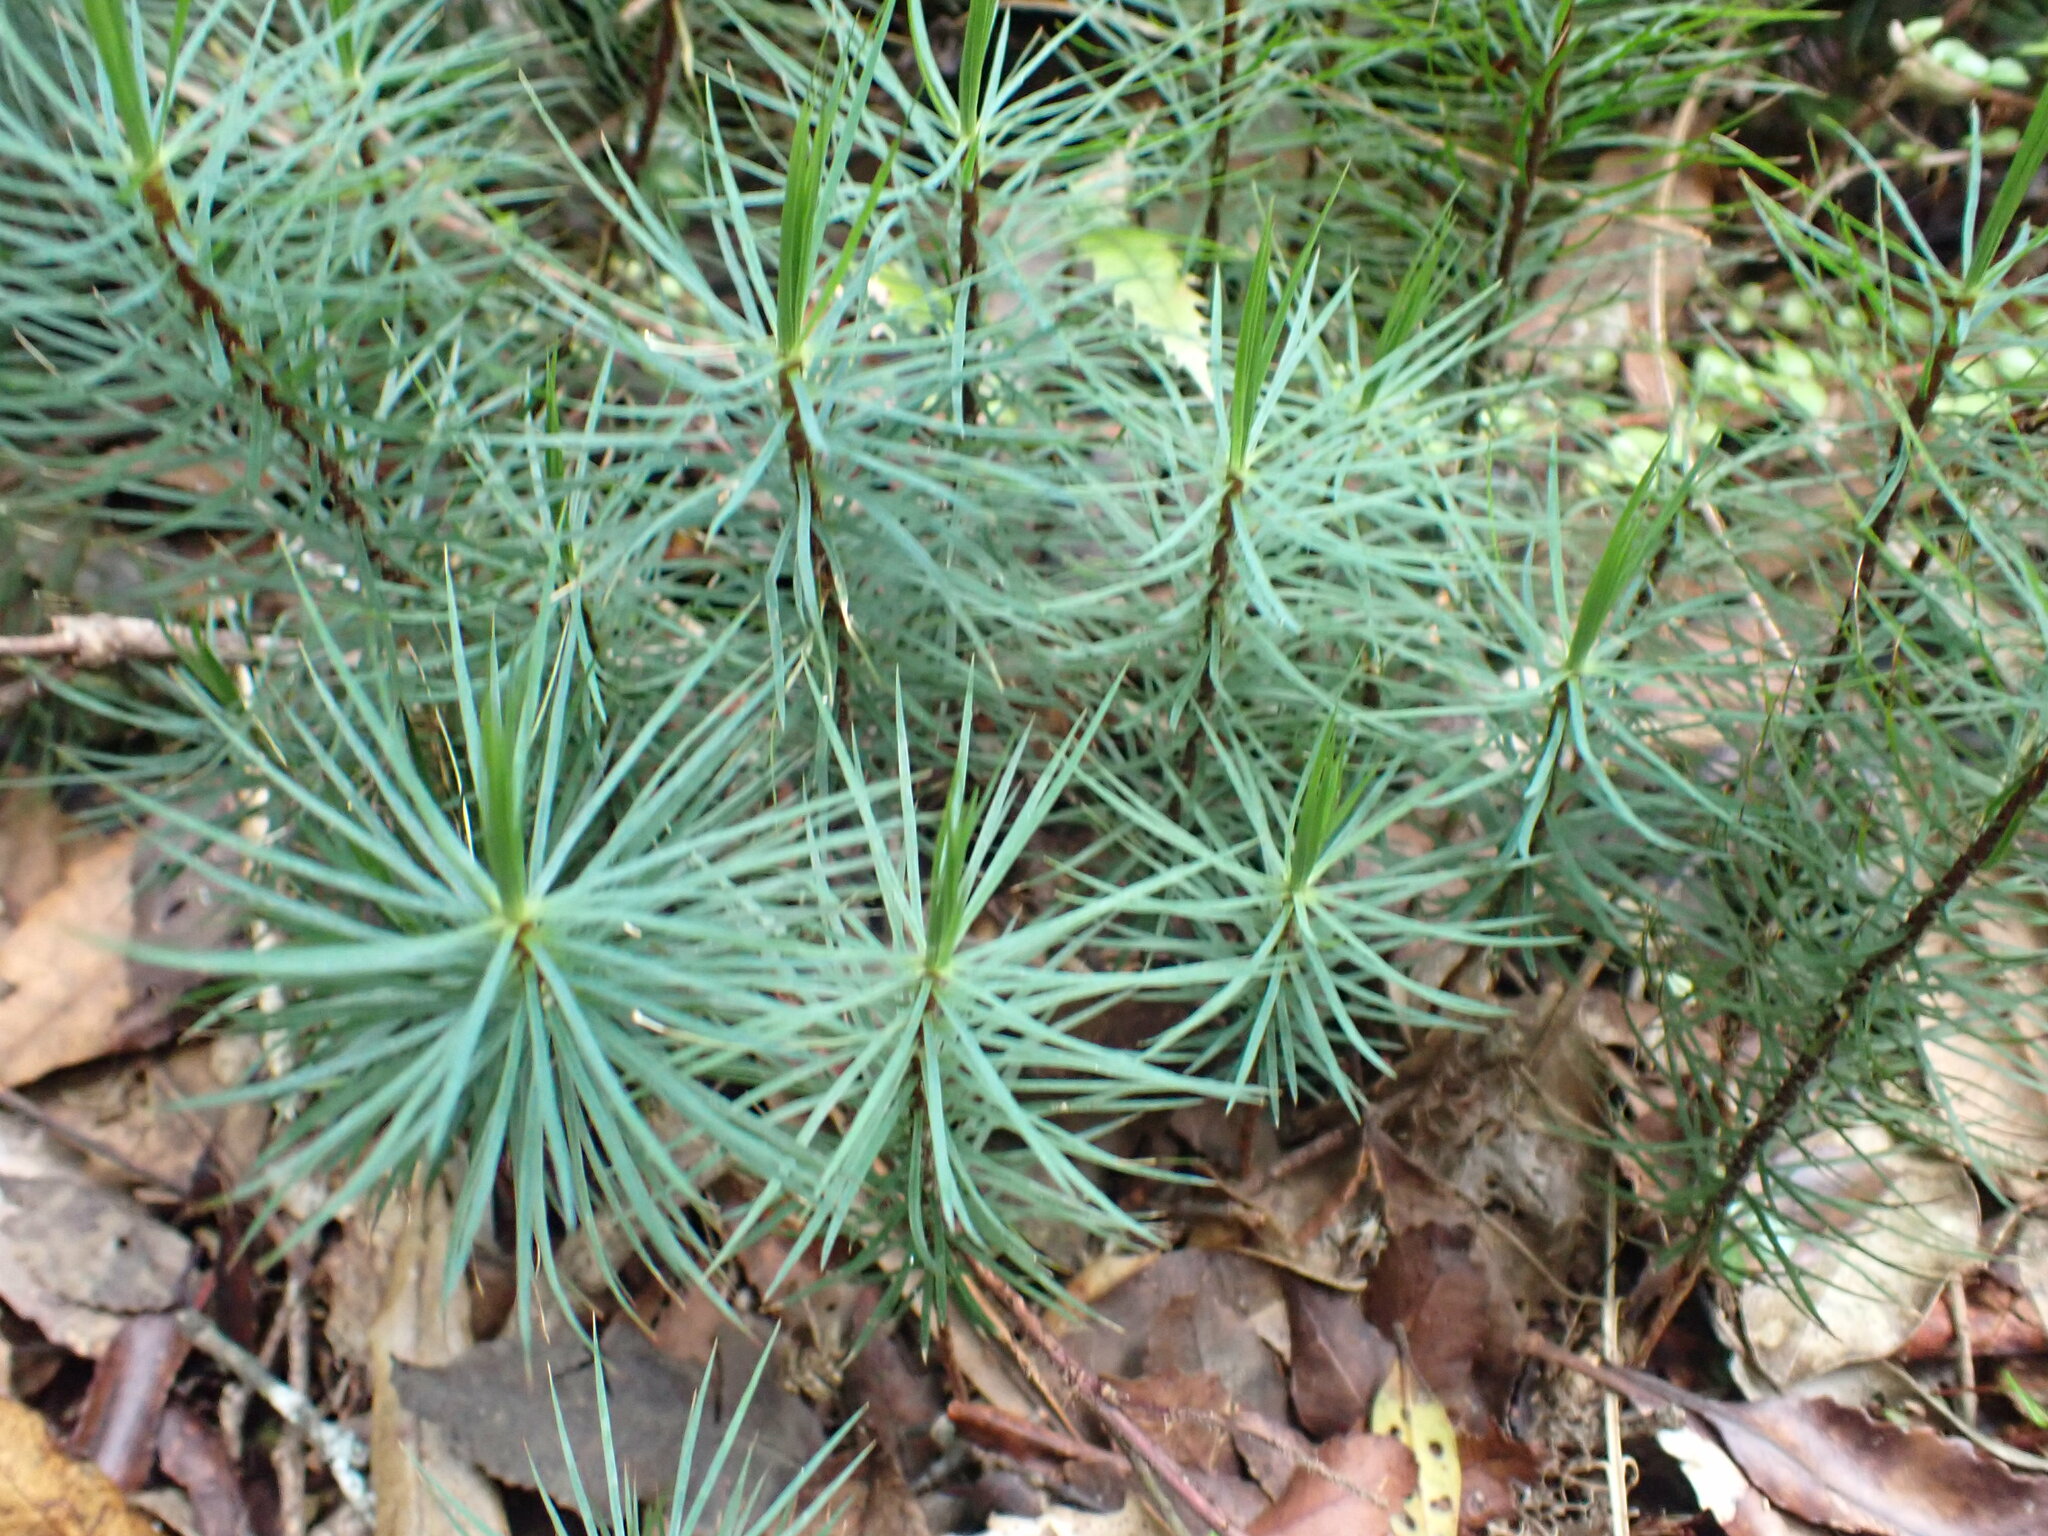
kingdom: Plantae
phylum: Bryophyta
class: Polytrichopsida
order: Polytrichales
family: Polytrichaceae
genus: Dawsonia
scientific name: Dawsonia superba
